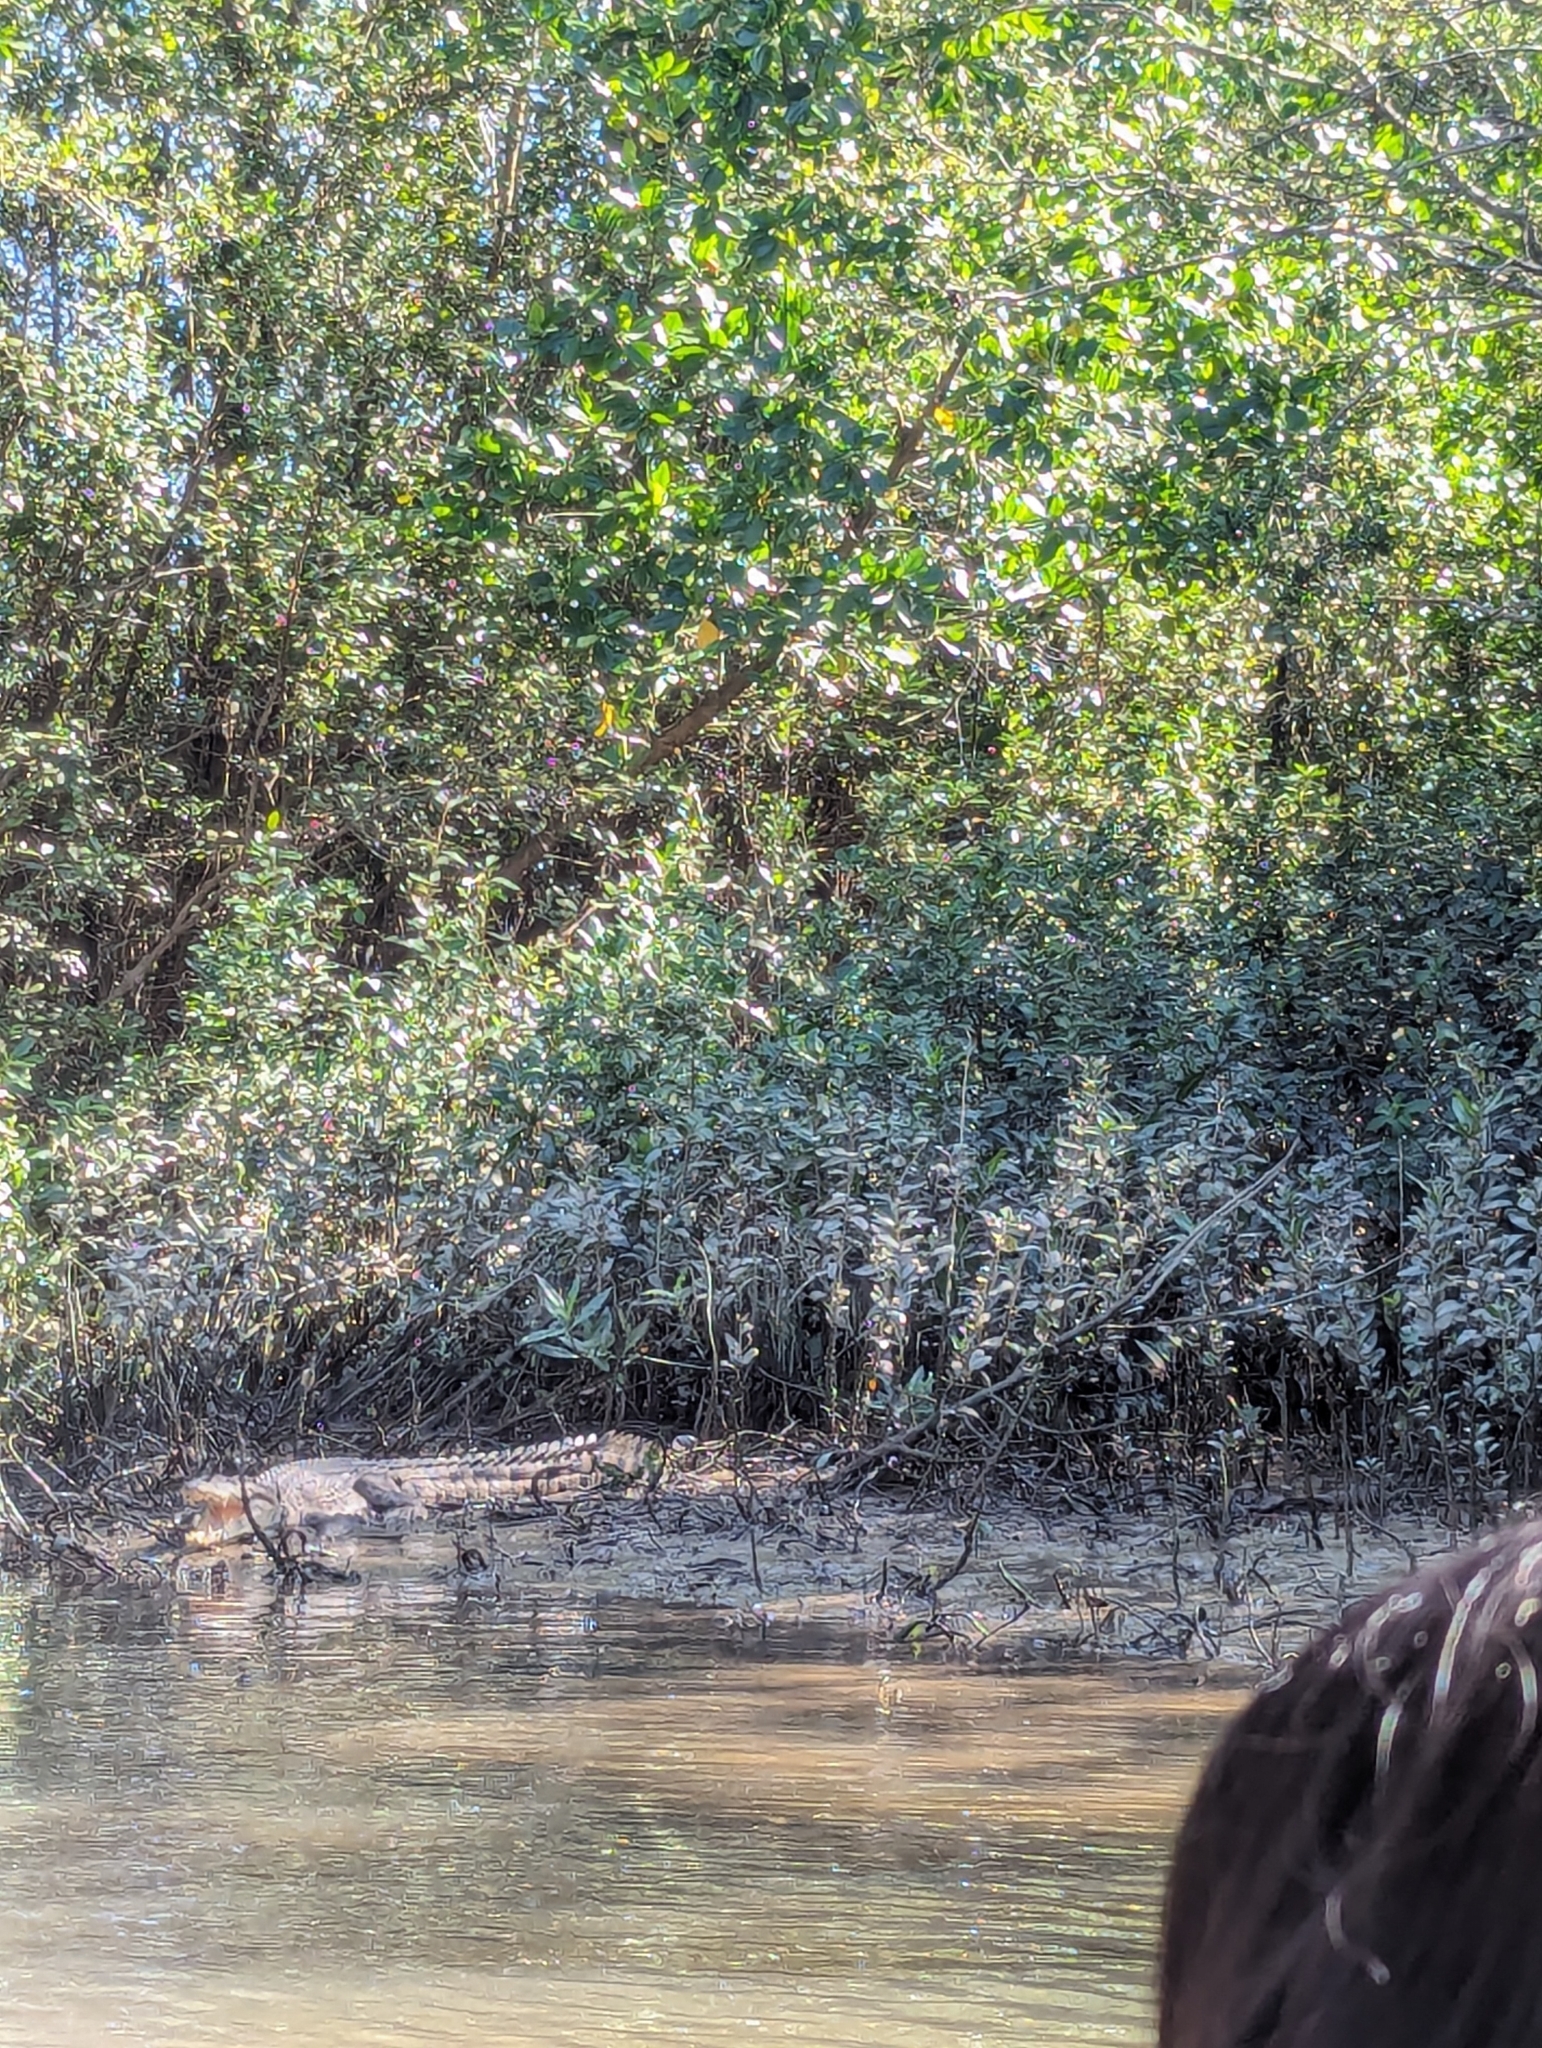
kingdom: Animalia
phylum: Chordata
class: Crocodylia
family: Crocodylidae
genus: Crocodylus
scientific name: Crocodylus porosus
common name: Saltwater crocodile
